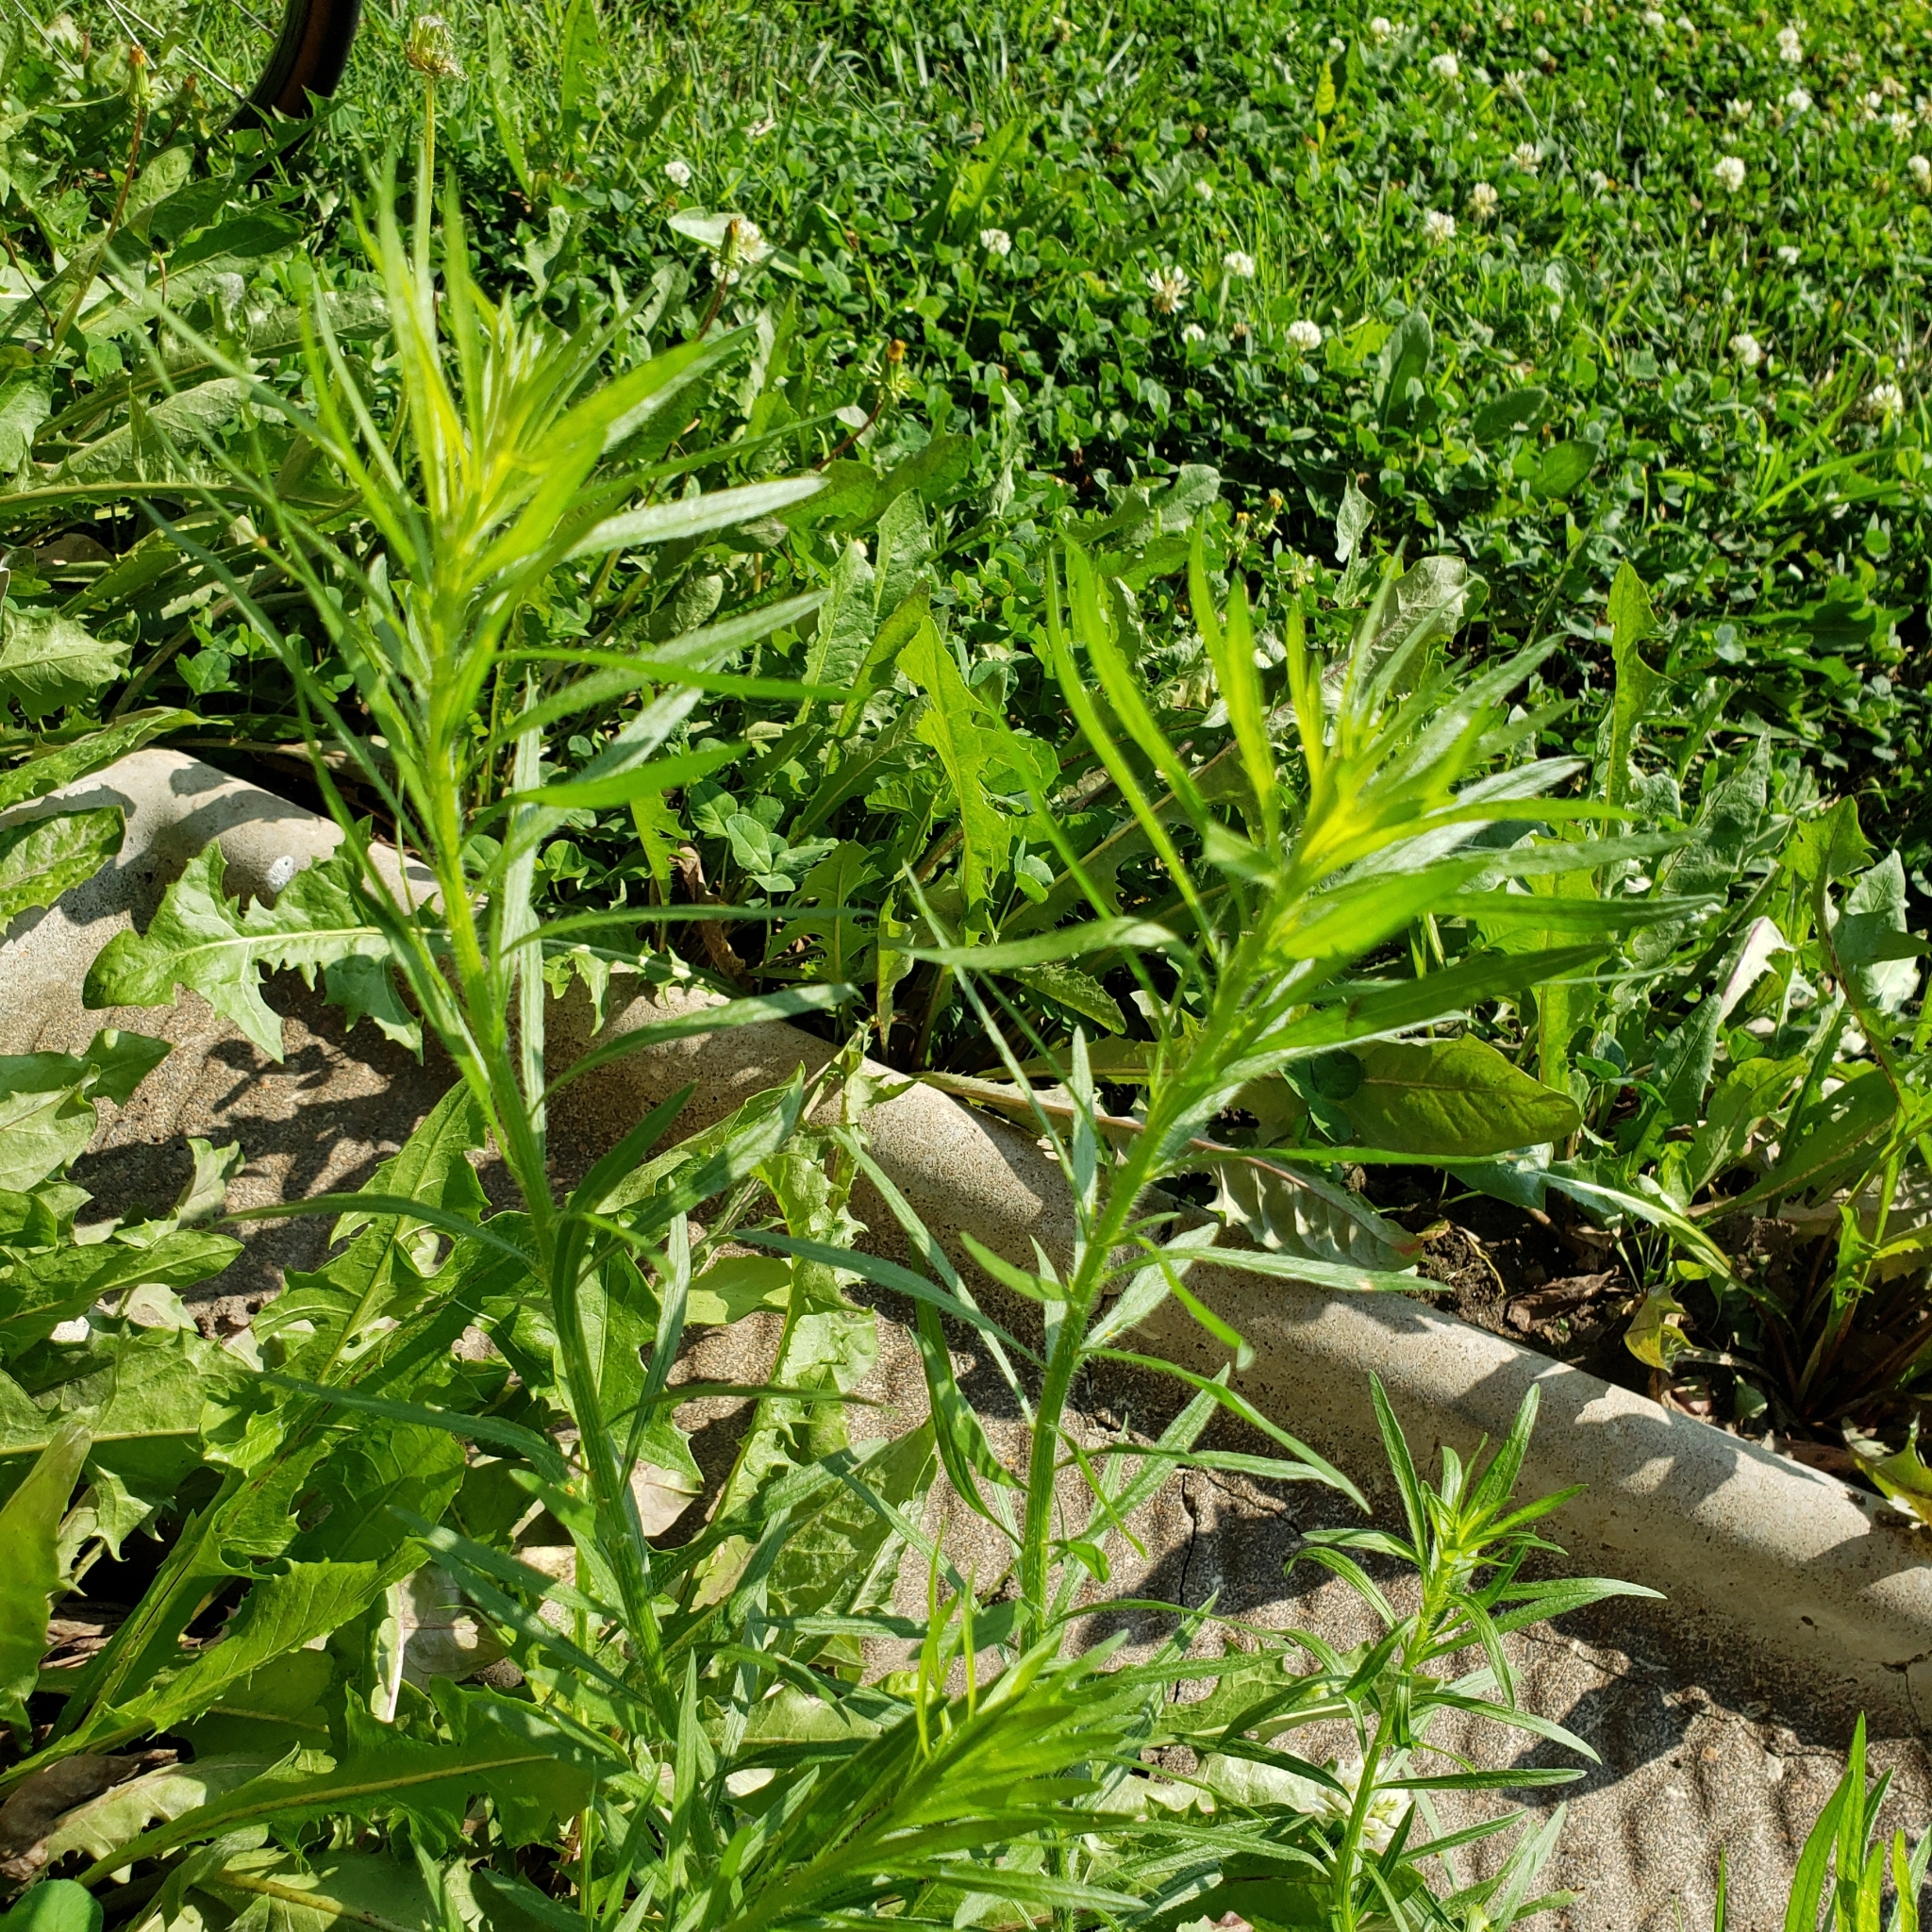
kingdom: Plantae
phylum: Tracheophyta
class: Magnoliopsida
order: Asterales
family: Asteraceae
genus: Erigeron
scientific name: Erigeron canadensis
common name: Canadian fleabane
